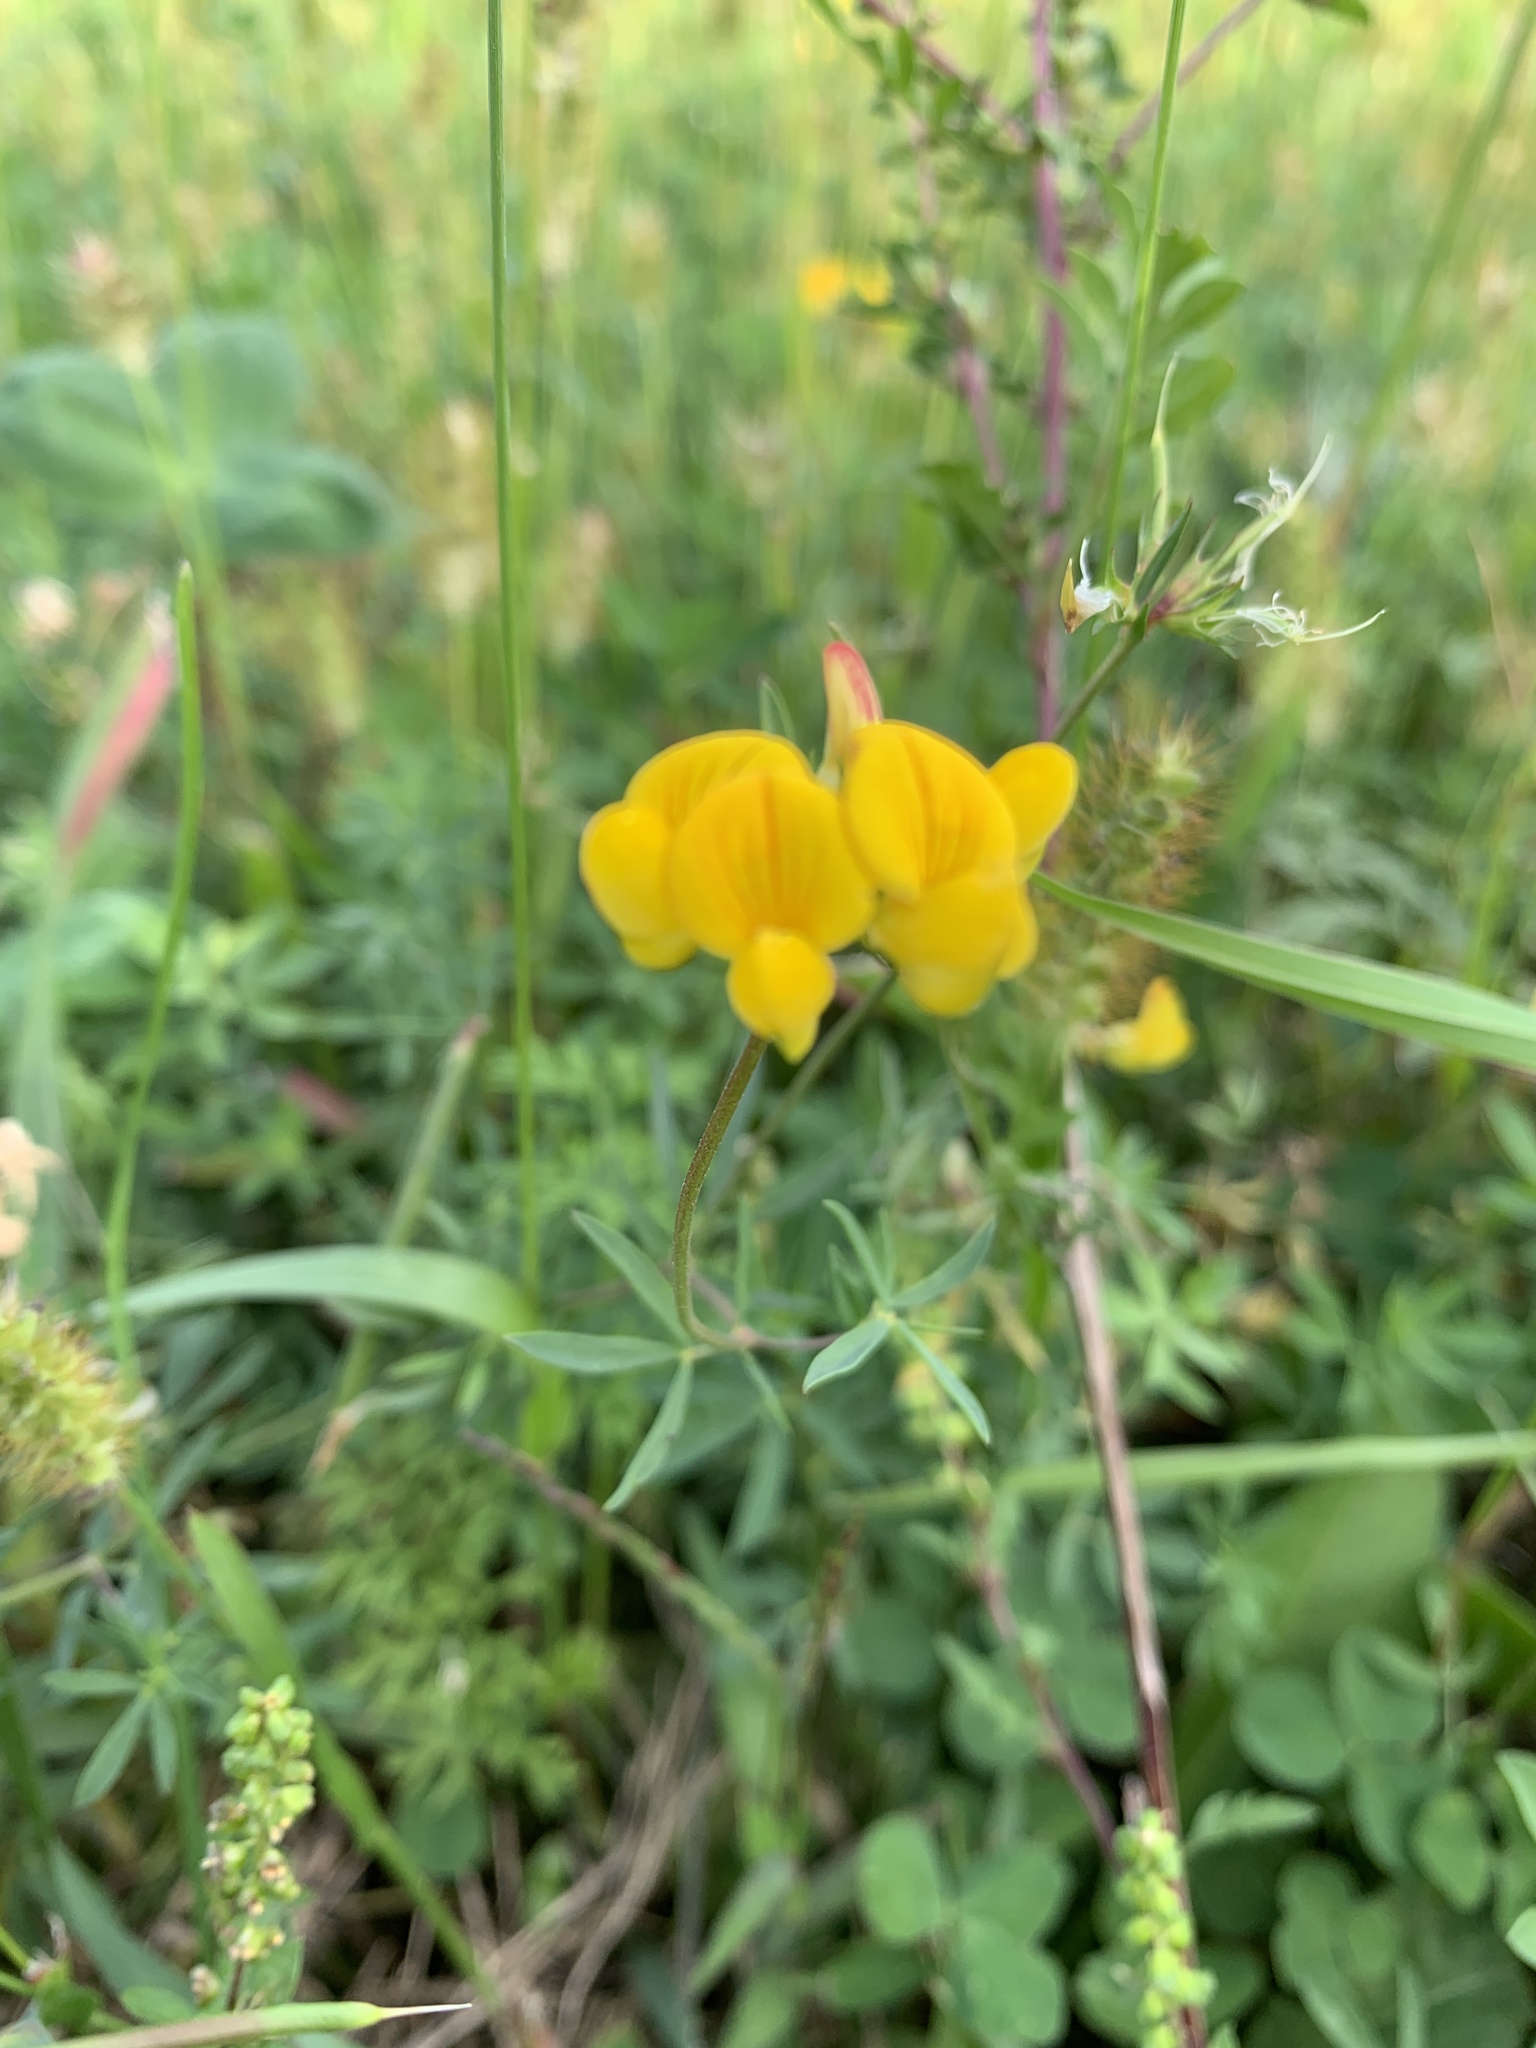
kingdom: Plantae
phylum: Tracheophyta
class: Magnoliopsida
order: Fabales
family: Fabaceae
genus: Lotus
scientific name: Lotus tenuis
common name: Narrow-leaved bird's-foot-trefoil
